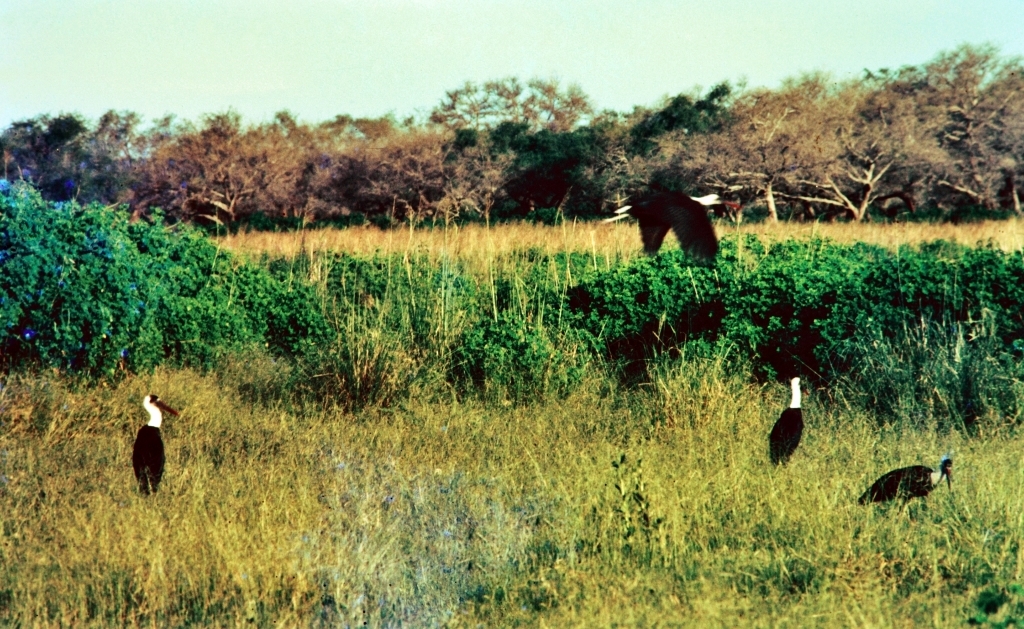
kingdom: Animalia
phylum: Chordata
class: Aves
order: Ciconiiformes
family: Ciconiidae
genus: Ciconia
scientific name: Ciconia microscelis
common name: African woollyneck
